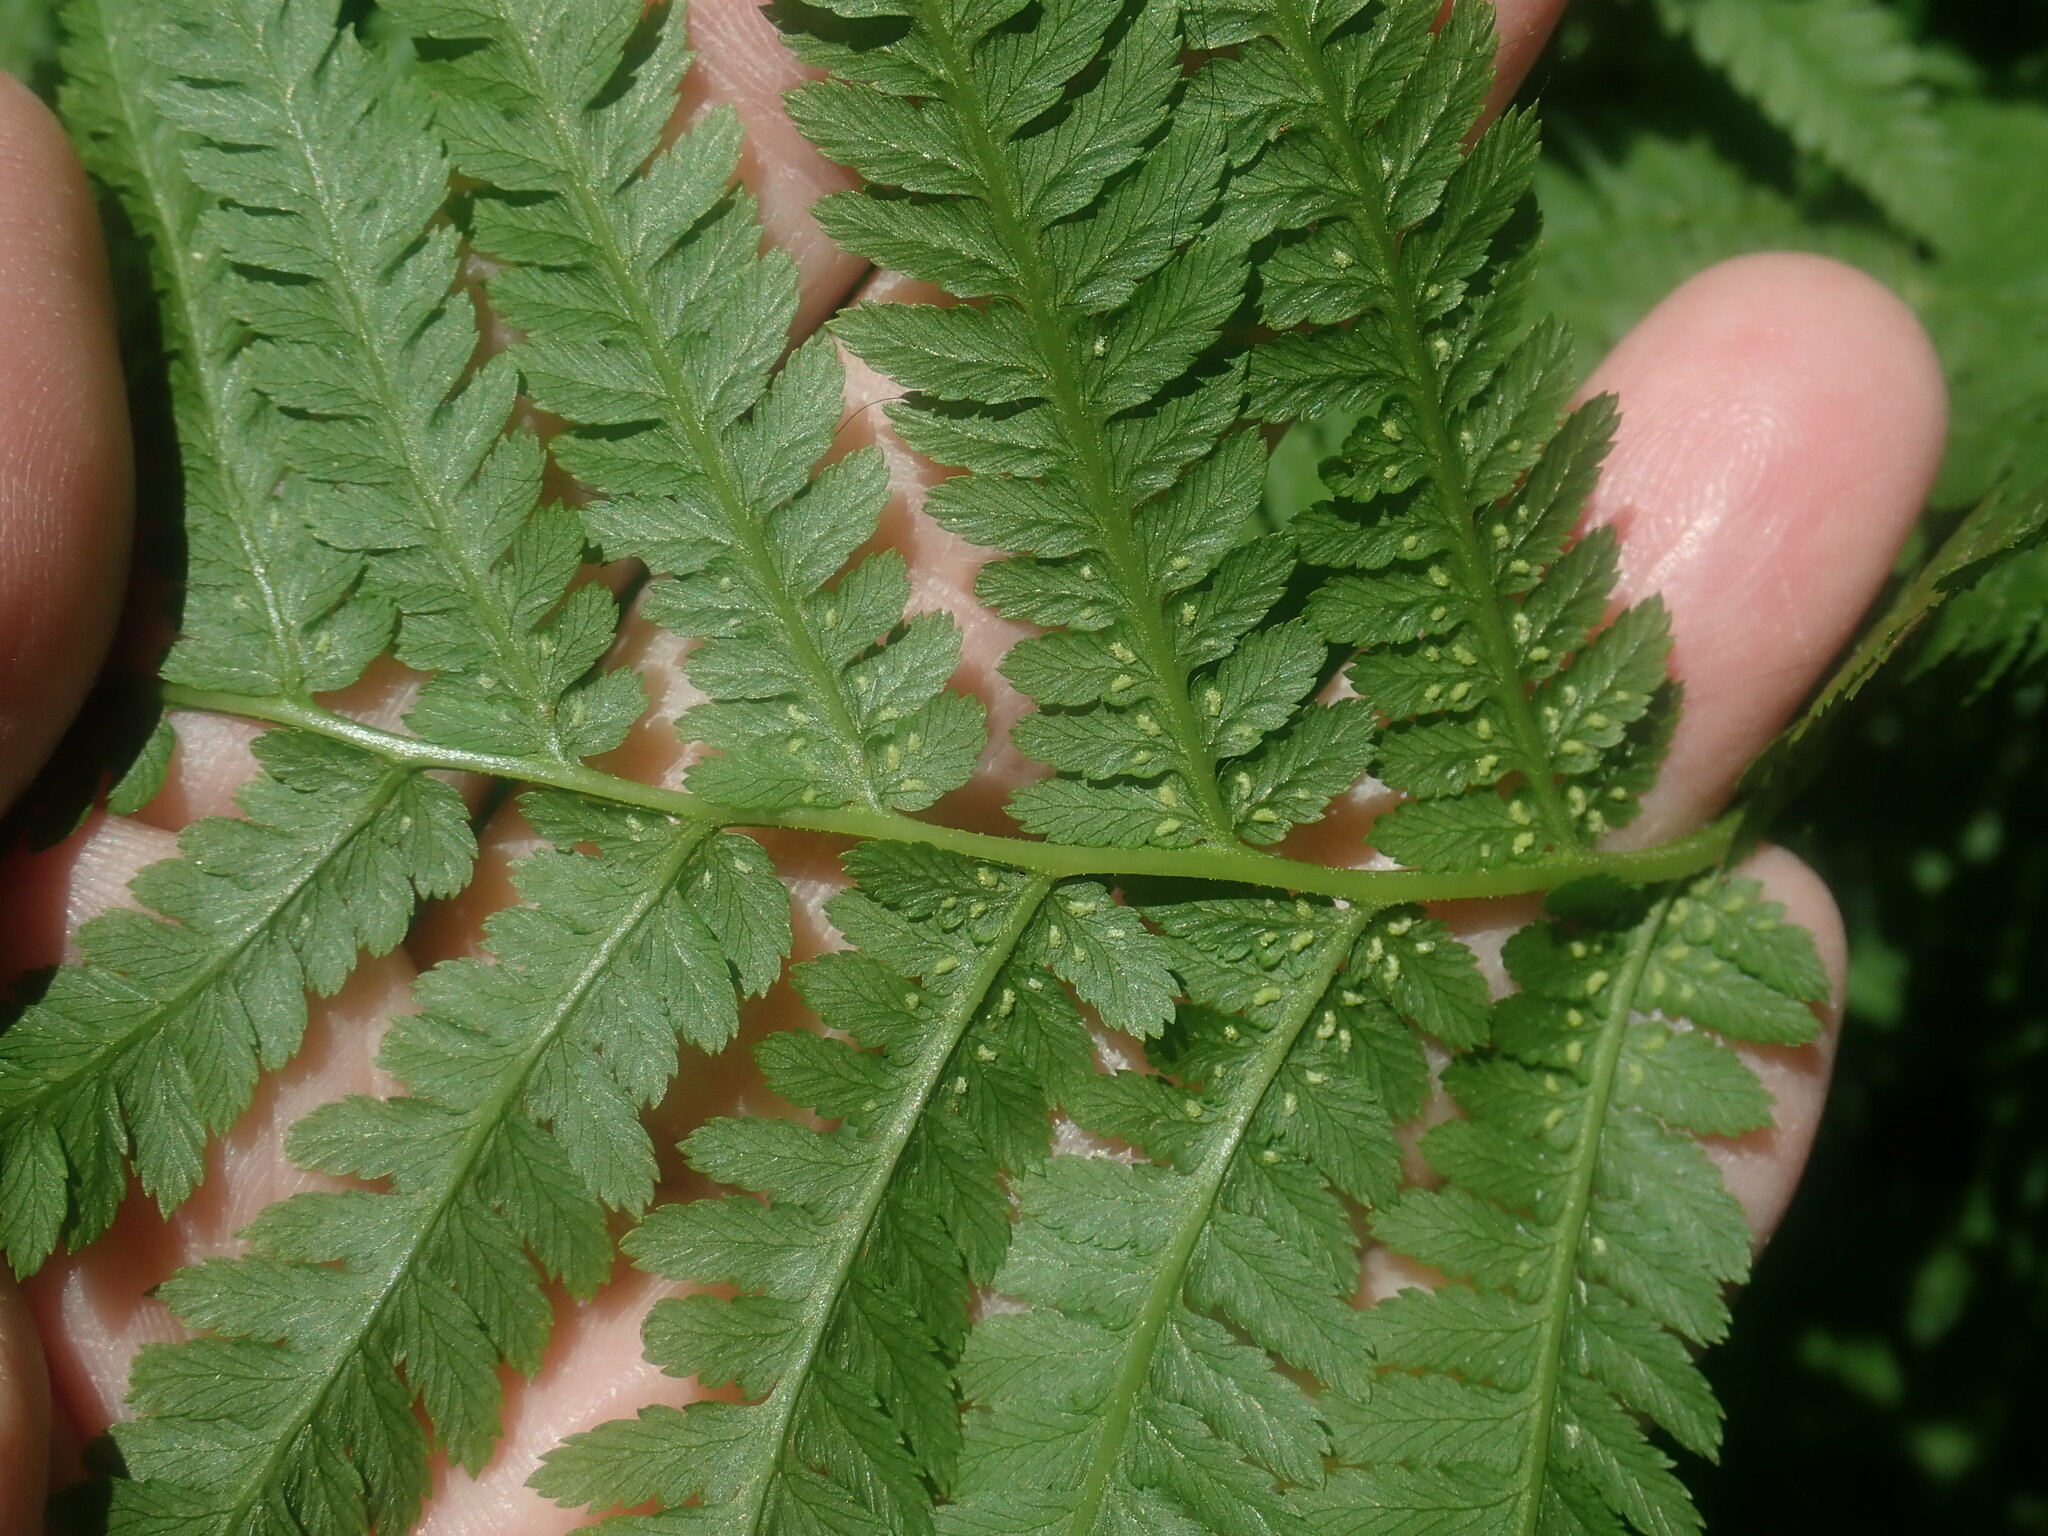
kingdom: Plantae
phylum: Tracheophyta
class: Polypodiopsida
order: Polypodiales
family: Athyriaceae
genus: Athyrium
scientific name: Athyrium angustum
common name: Northern lady fern
